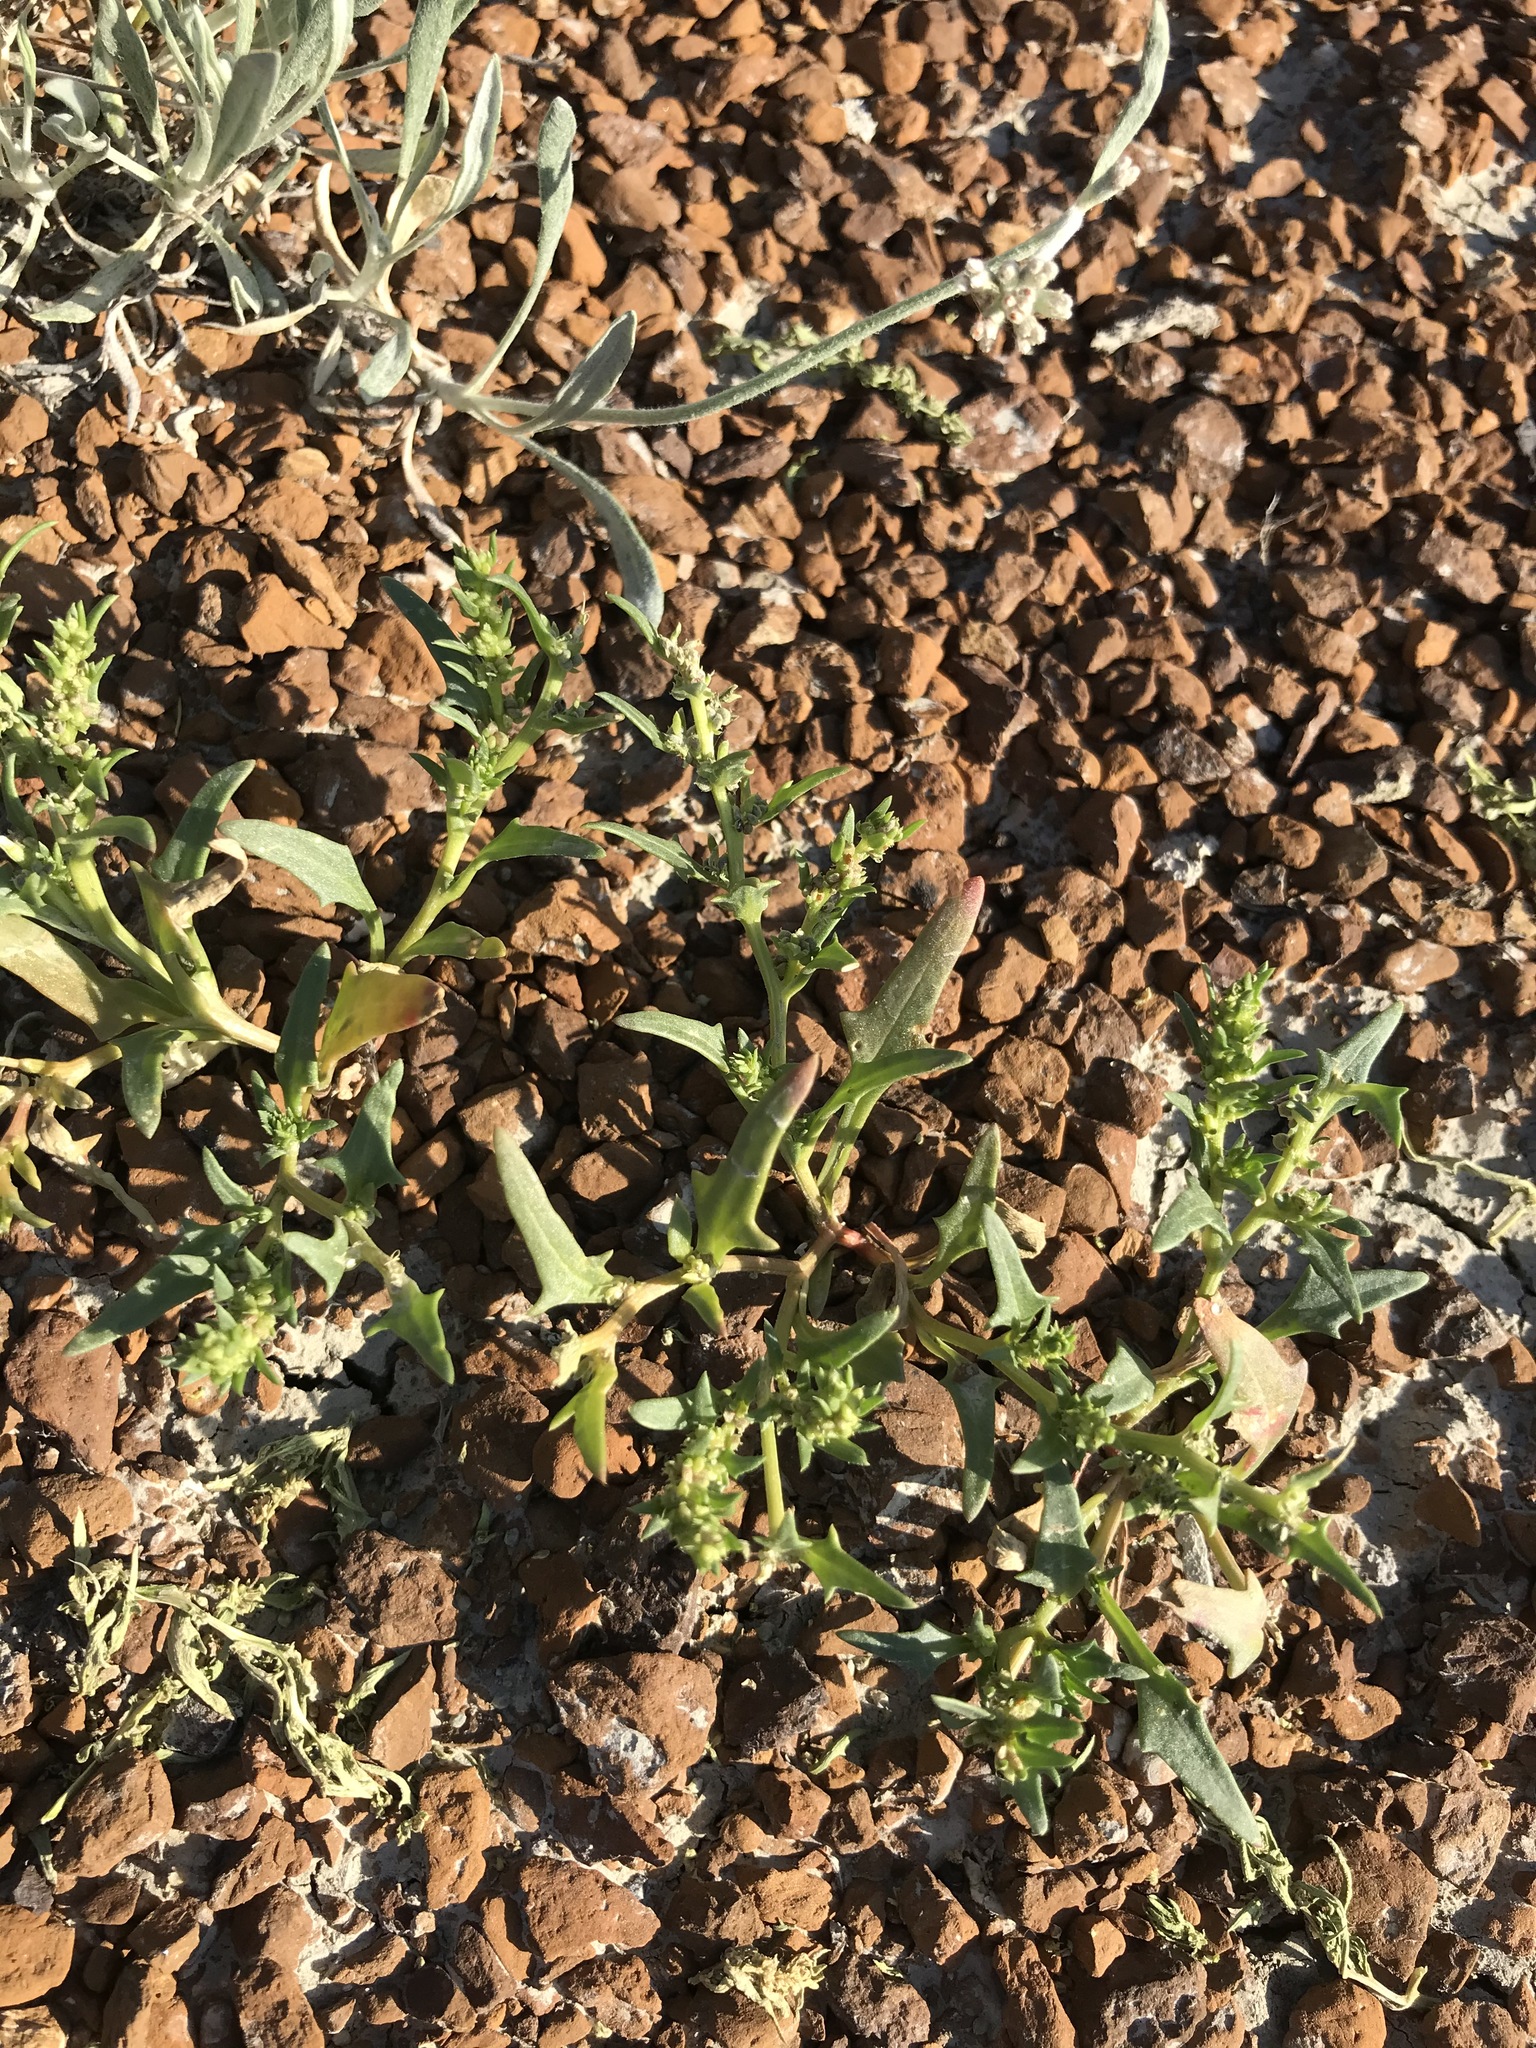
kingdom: Plantae
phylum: Tracheophyta
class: Magnoliopsida
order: Caryophyllales
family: Amaranthaceae
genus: Blitum
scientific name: Blitum nuttallianum
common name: Poverty-weed
